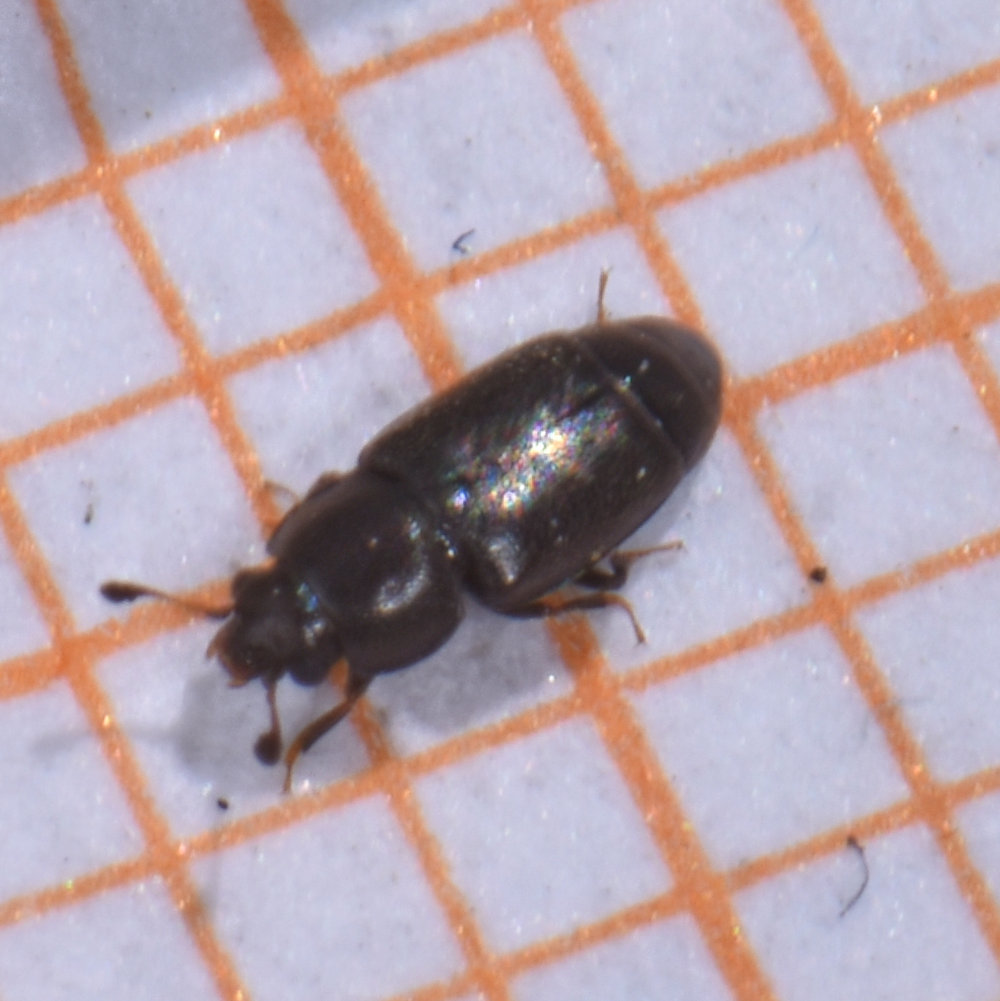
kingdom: Animalia
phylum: Arthropoda
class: Insecta
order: Coleoptera
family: Nitidulidae
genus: Carpophilus
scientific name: Carpophilus brachypterus
